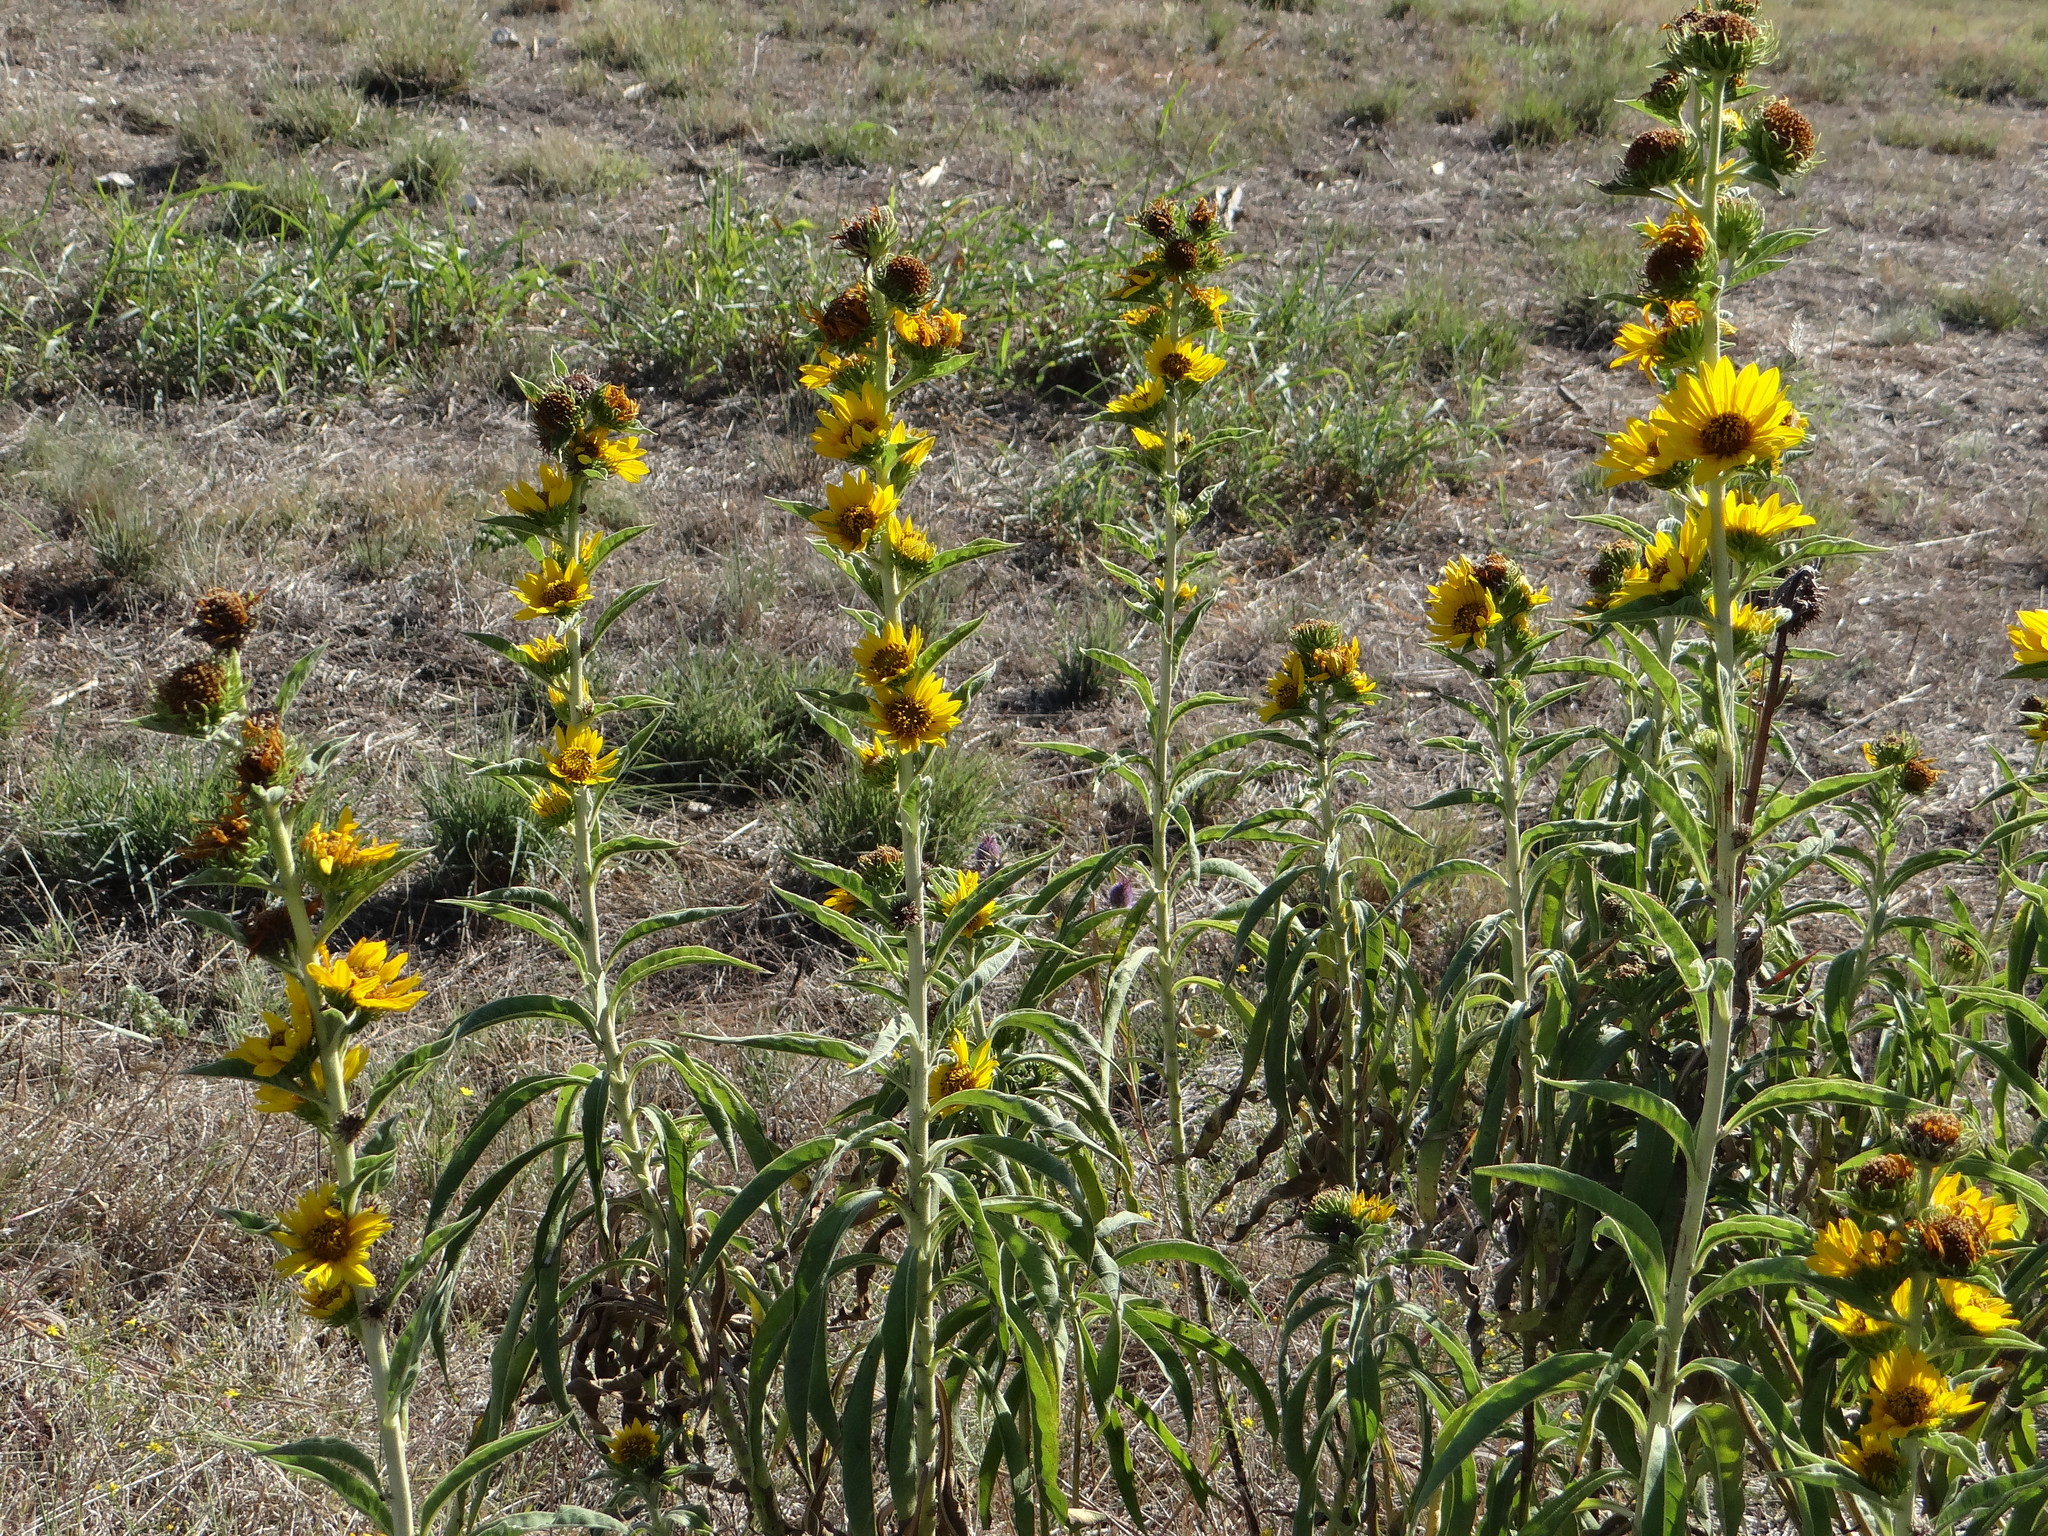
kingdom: Plantae
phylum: Tracheophyta
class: Magnoliopsida
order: Asterales
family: Asteraceae
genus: Helianthus
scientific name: Helianthus maximiliani
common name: Maximilian's sunflower
